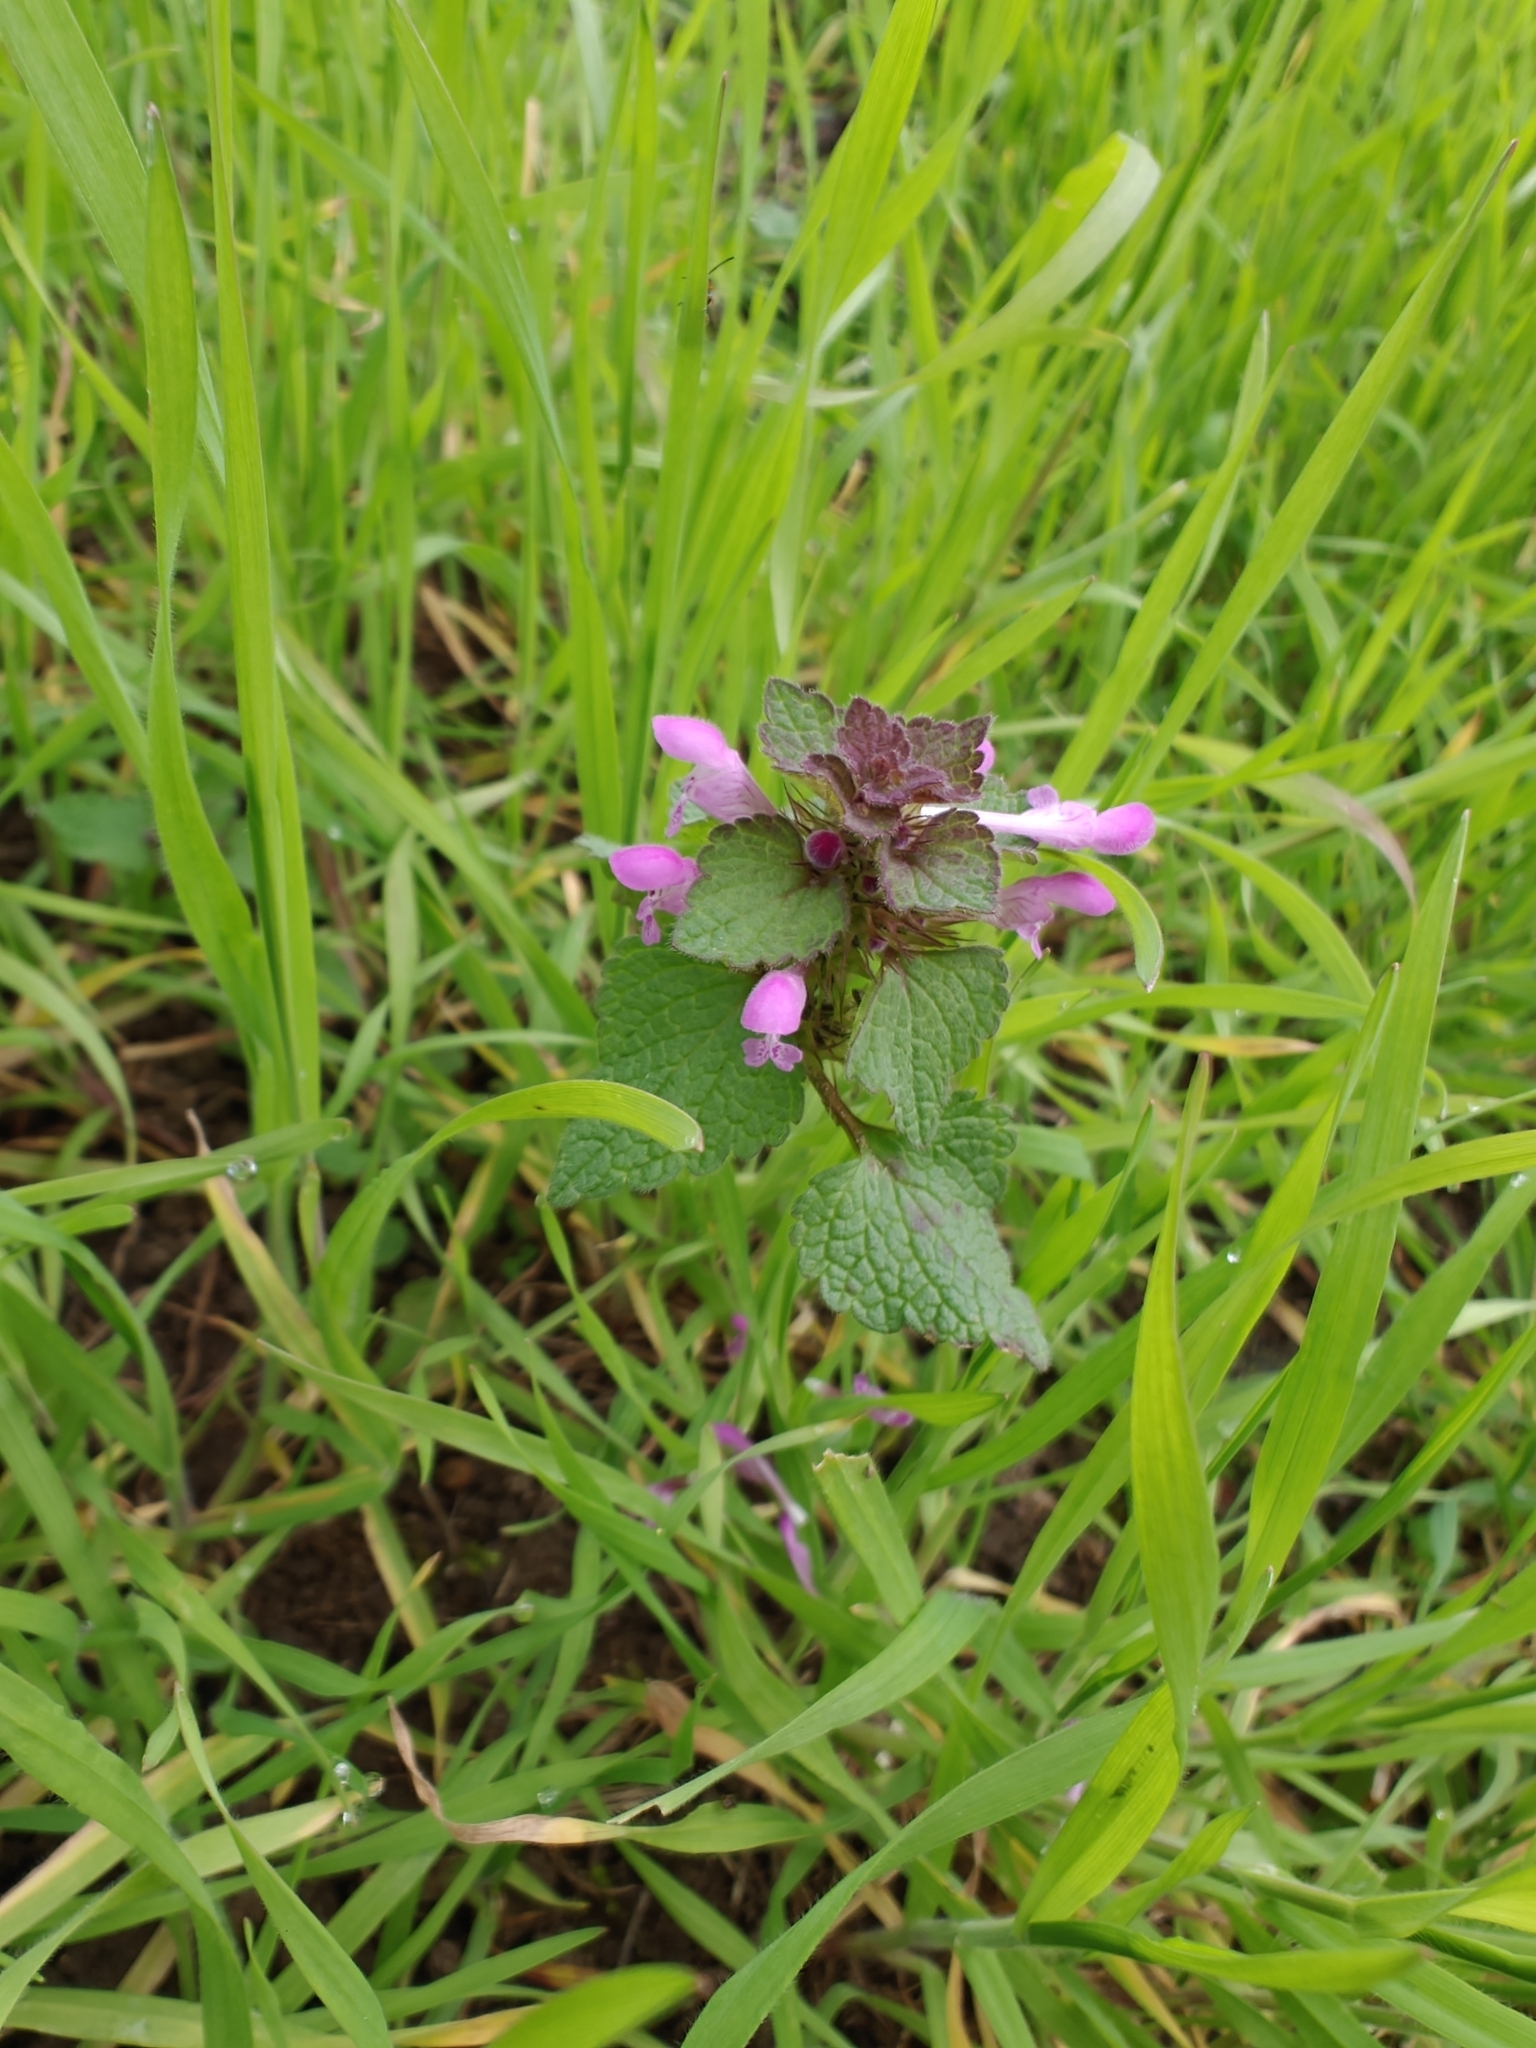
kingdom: Plantae
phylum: Tracheophyta
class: Magnoliopsida
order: Lamiales
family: Lamiaceae
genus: Lamium
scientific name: Lamium purpureum
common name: Red dead-nettle
